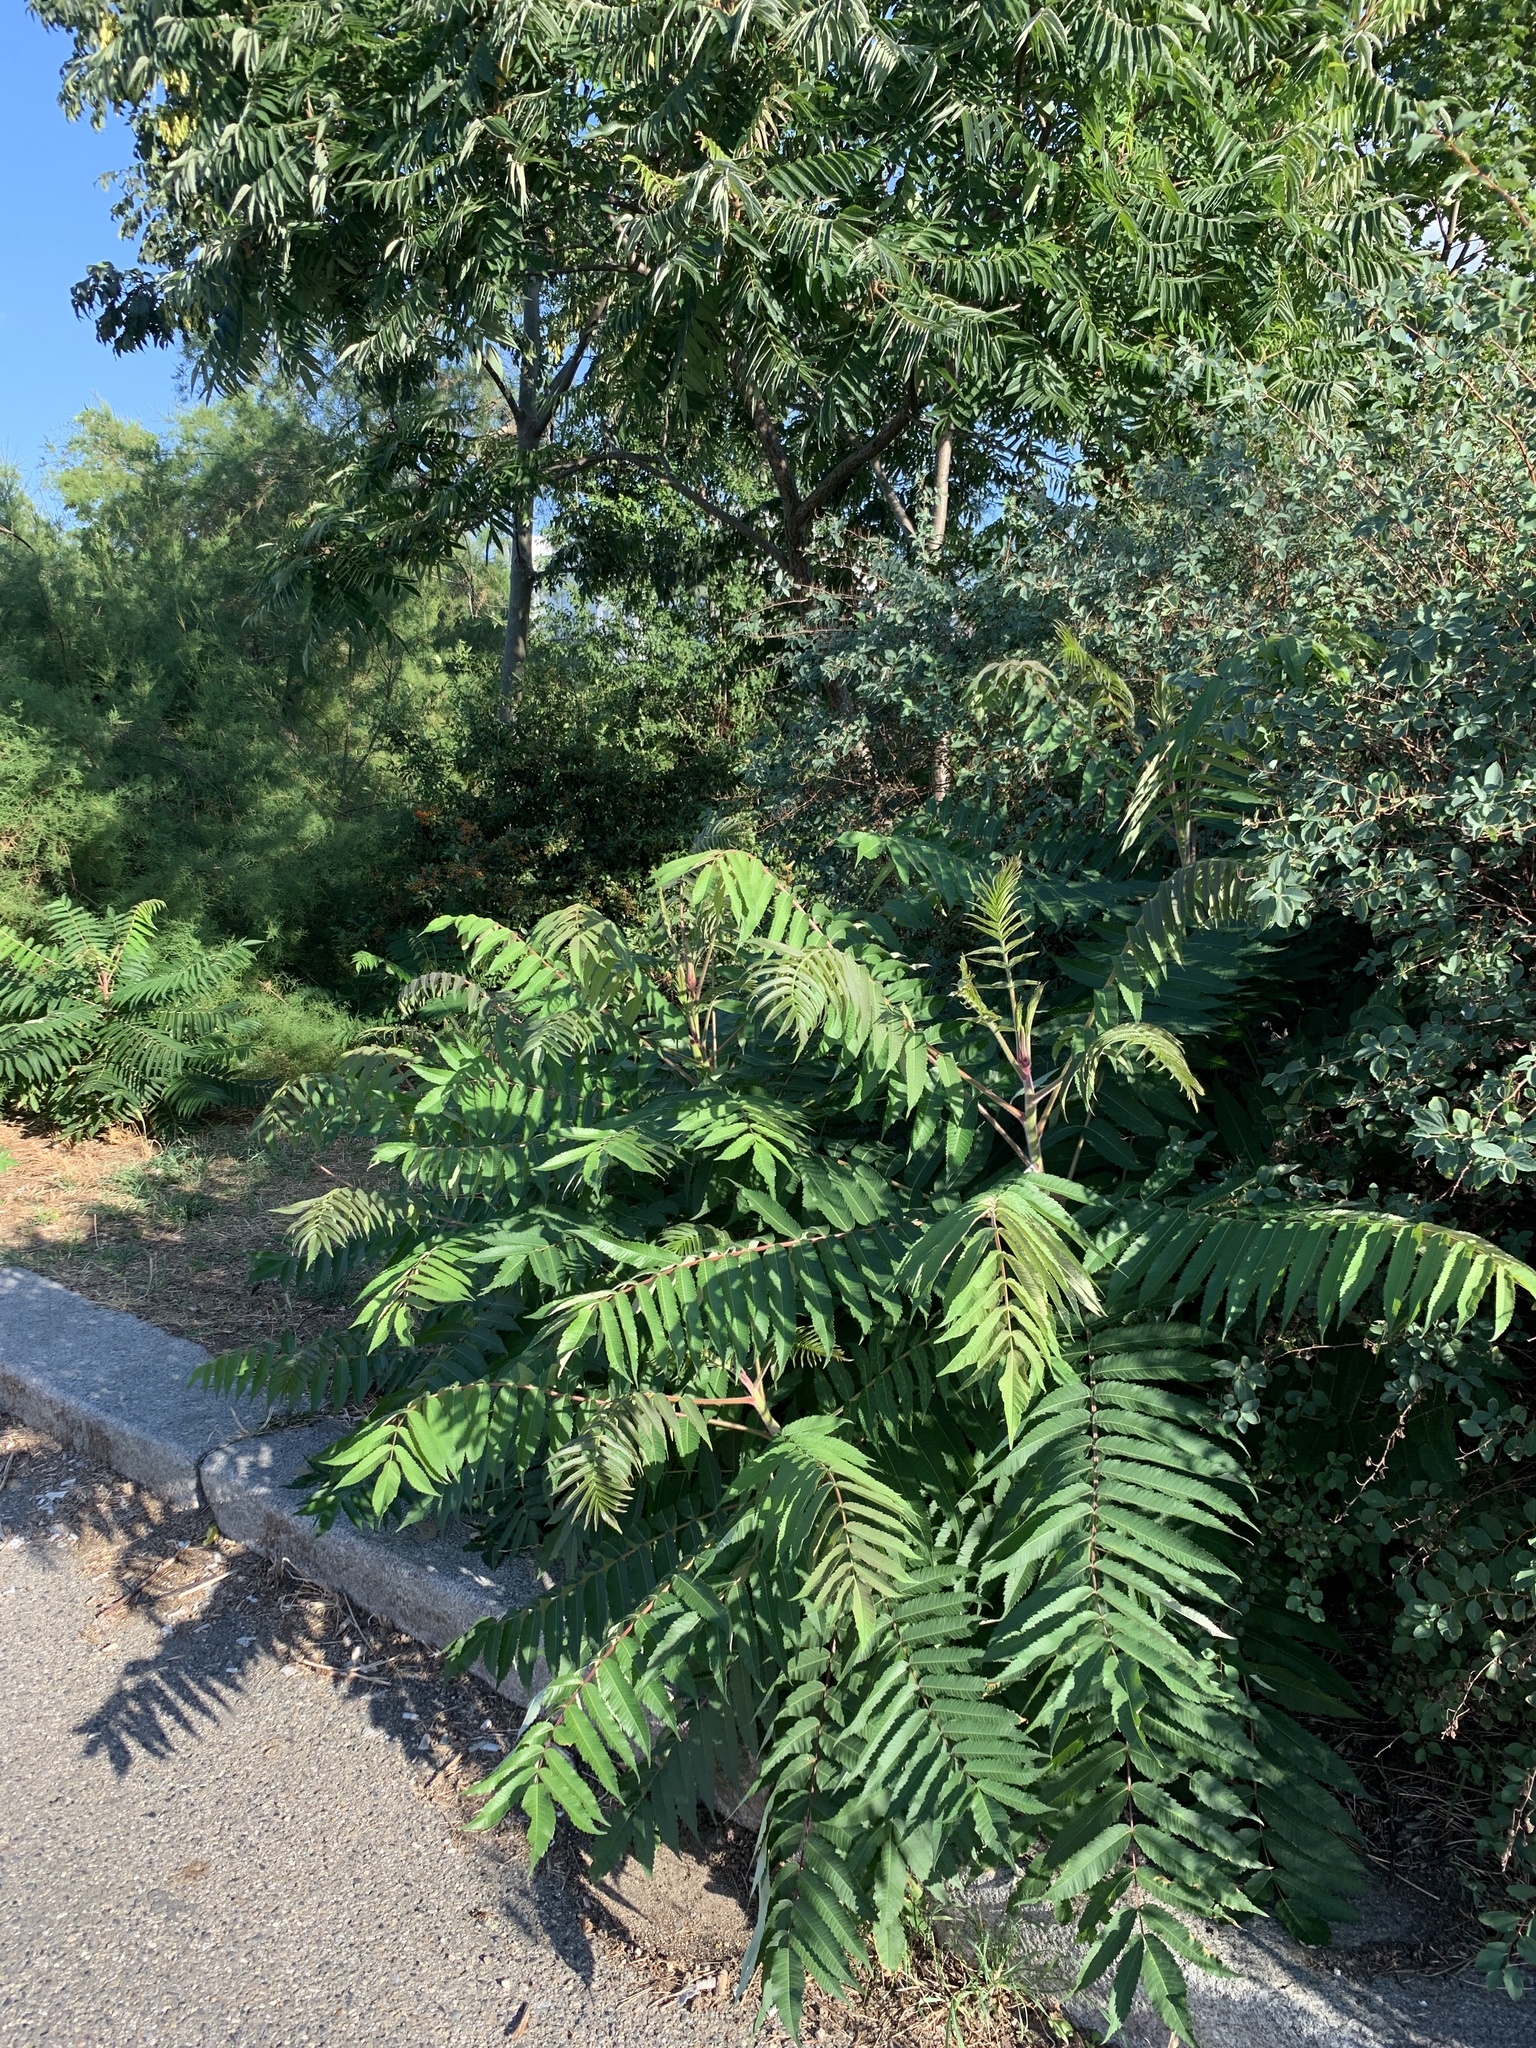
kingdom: Plantae
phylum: Tracheophyta
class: Magnoliopsida
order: Sapindales
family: Anacardiaceae
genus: Rhus
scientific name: Rhus typhina
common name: Staghorn sumac
